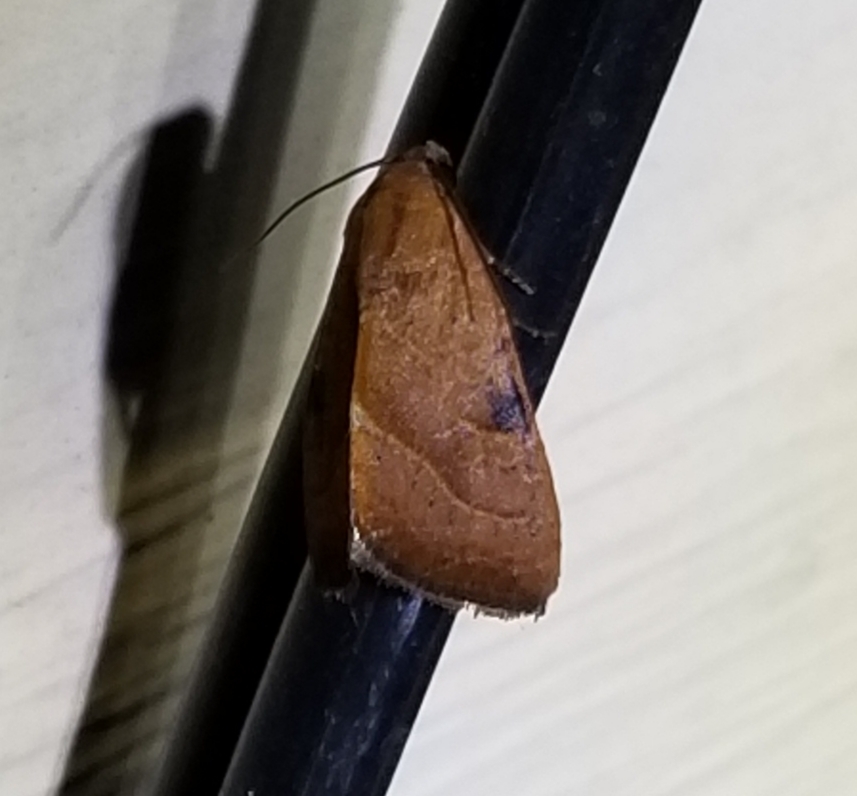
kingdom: Animalia
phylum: Arthropoda
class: Insecta
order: Lepidoptera
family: Noctuidae
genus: Galgula
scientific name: Galgula partita
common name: Wedgeling
